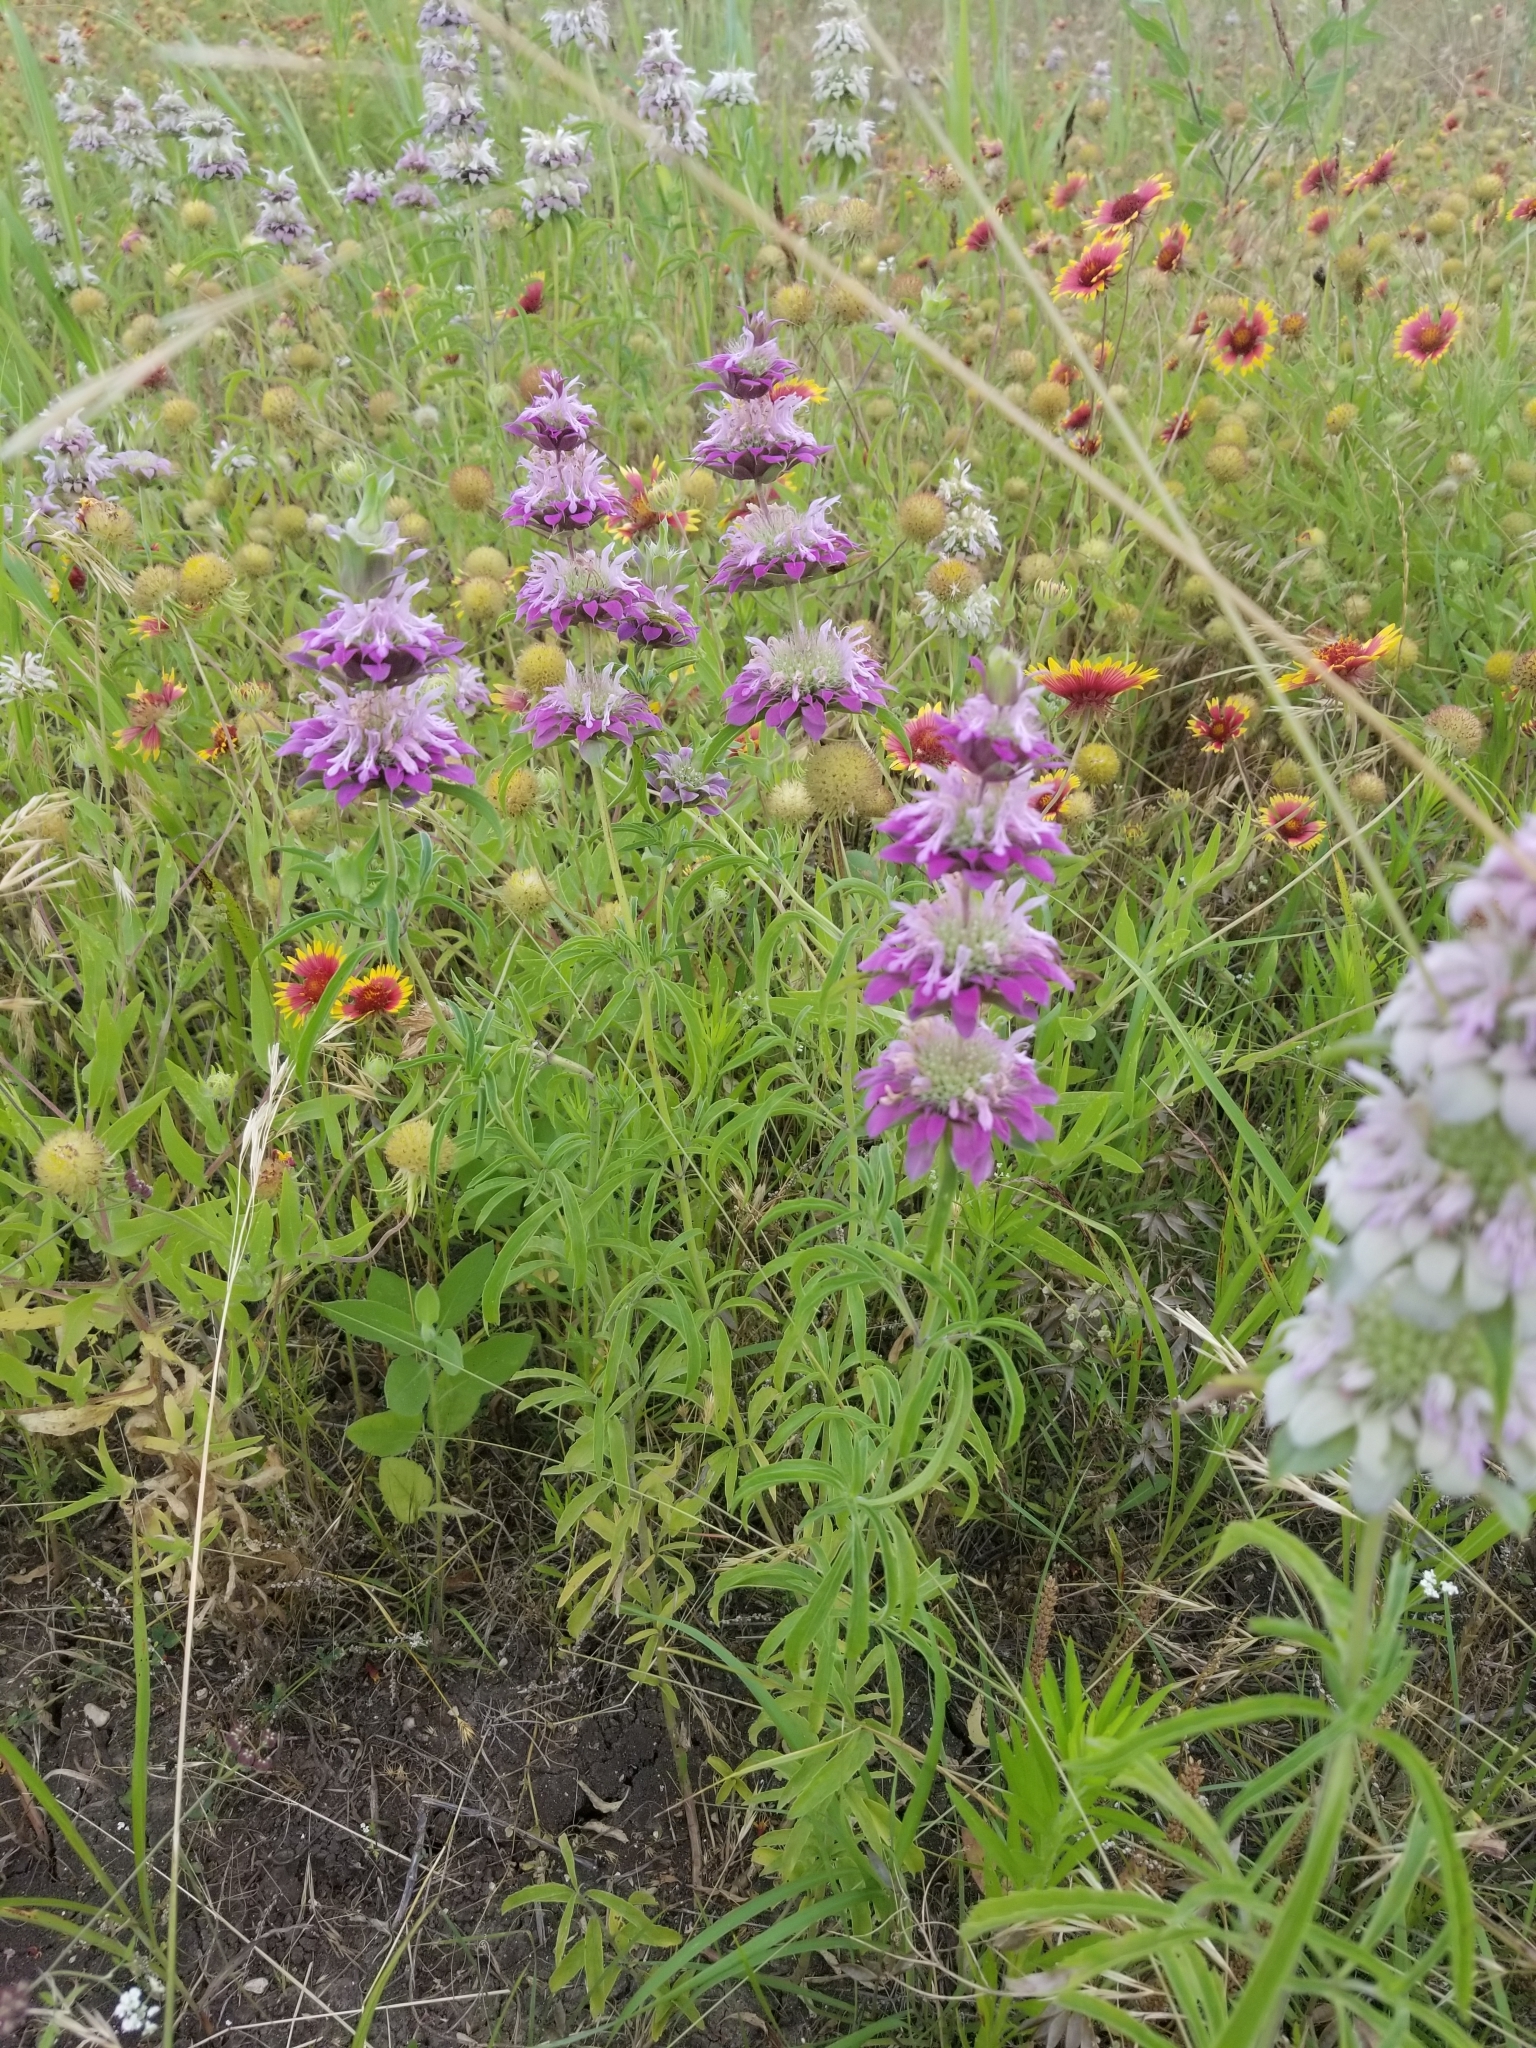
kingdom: Plantae
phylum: Tracheophyta
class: Magnoliopsida
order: Lamiales
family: Lamiaceae
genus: Monarda
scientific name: Monarda citriodora
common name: Lemon beebalm
